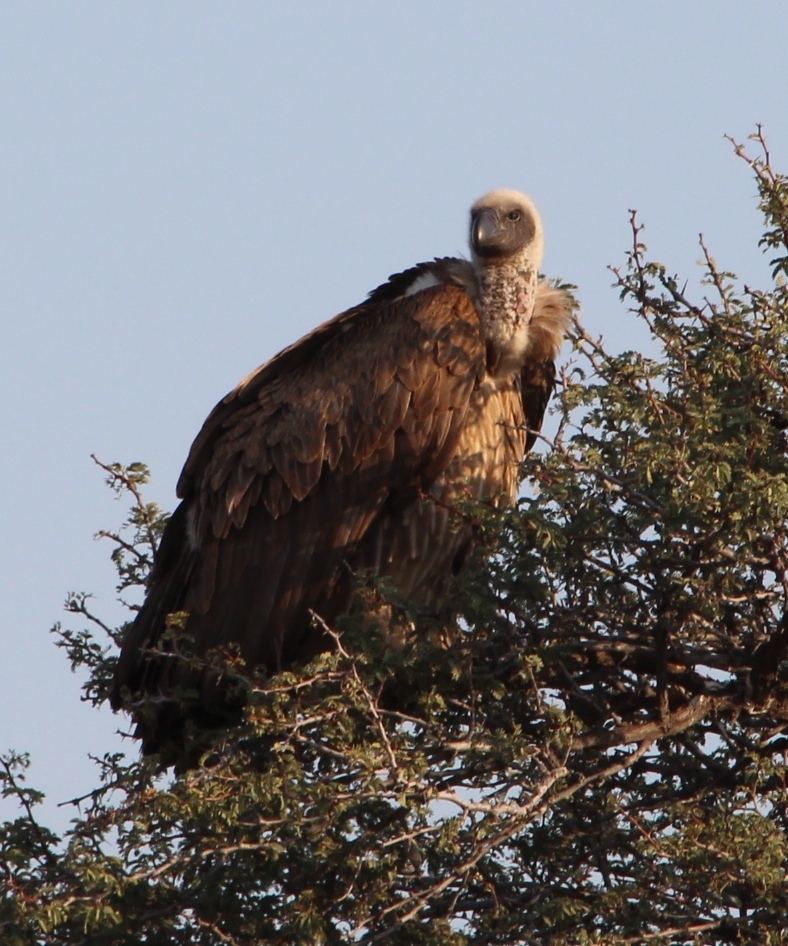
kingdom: Animalia
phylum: Chordata
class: Aves
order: Accipitriformes
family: Accipitridae
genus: Gyps
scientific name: Gyps africanus
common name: White-backed vulture
